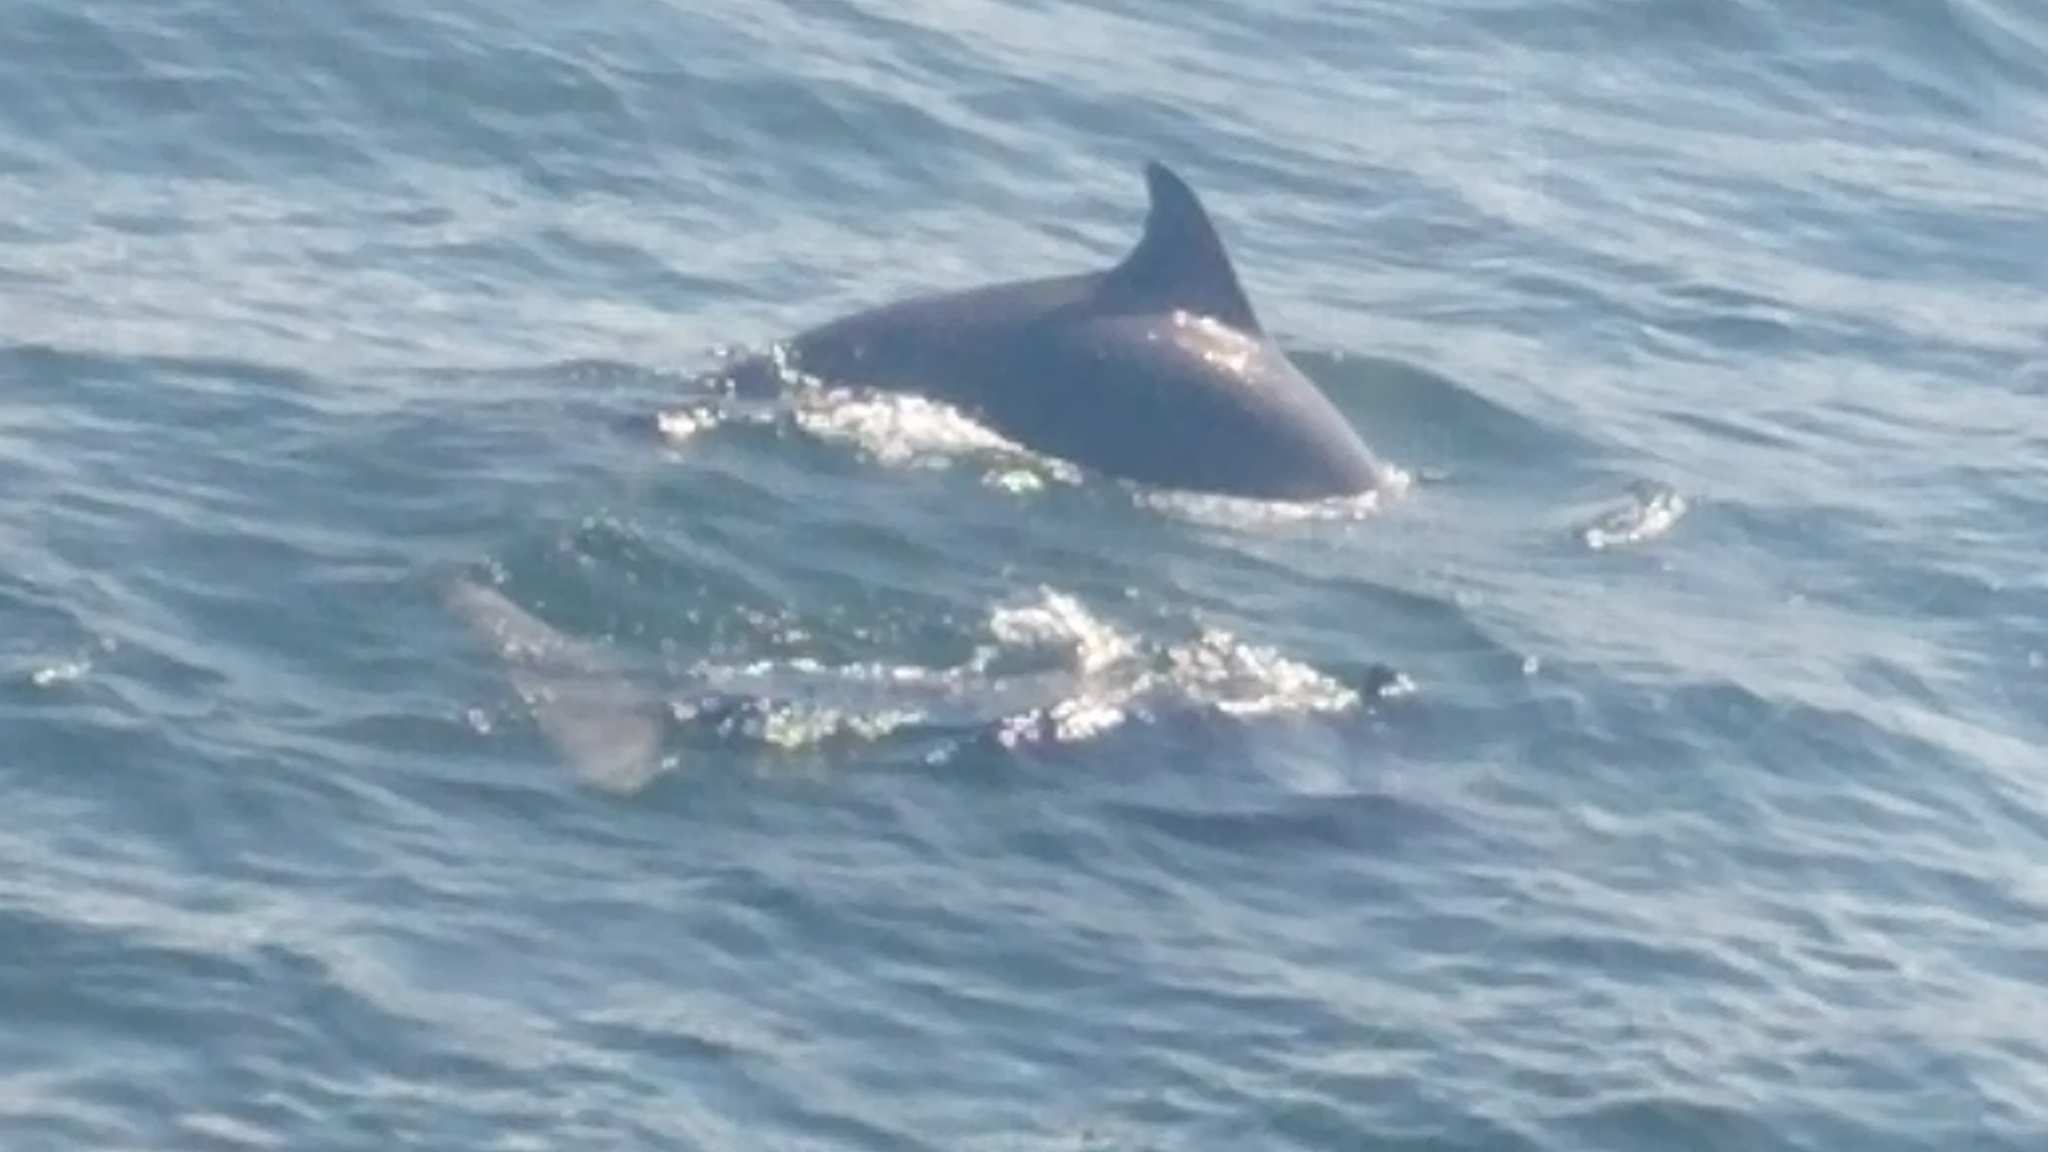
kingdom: Animalia
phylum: Chordata
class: Mammalia
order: Cetacea
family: Delphinidae
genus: Tursiops
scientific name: Tursiops truncatus
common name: Bottlenose dolphin
